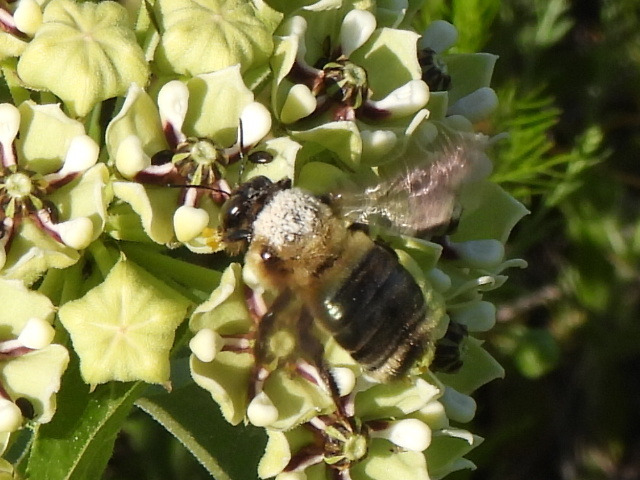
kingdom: Animalia
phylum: Arthropoda
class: Insecta
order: Hymenoptera
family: Apidae
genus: Xylocopa
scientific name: Xylocopa virginica
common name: Carpenter bee
